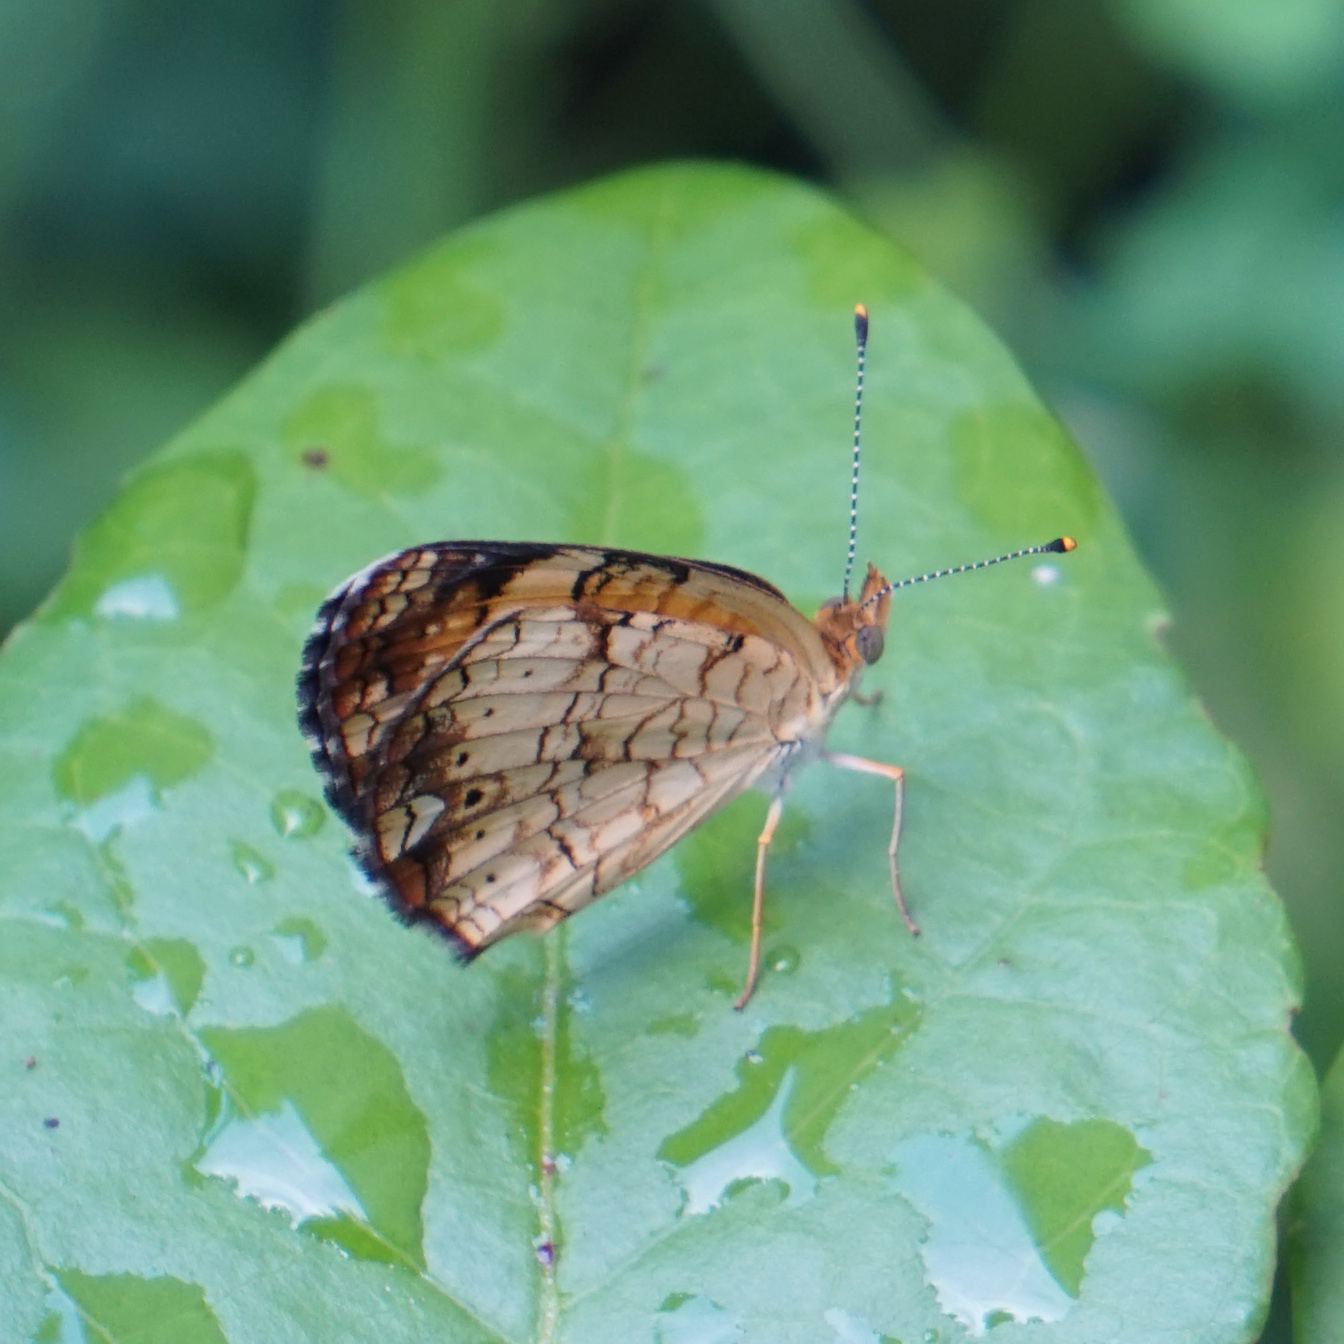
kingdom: Animalia
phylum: Arthropoda
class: Insecta
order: Lepidoptera
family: Nymphalidae
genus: Phyciodes
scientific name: Phyciodes tharos
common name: Pearl crescent
